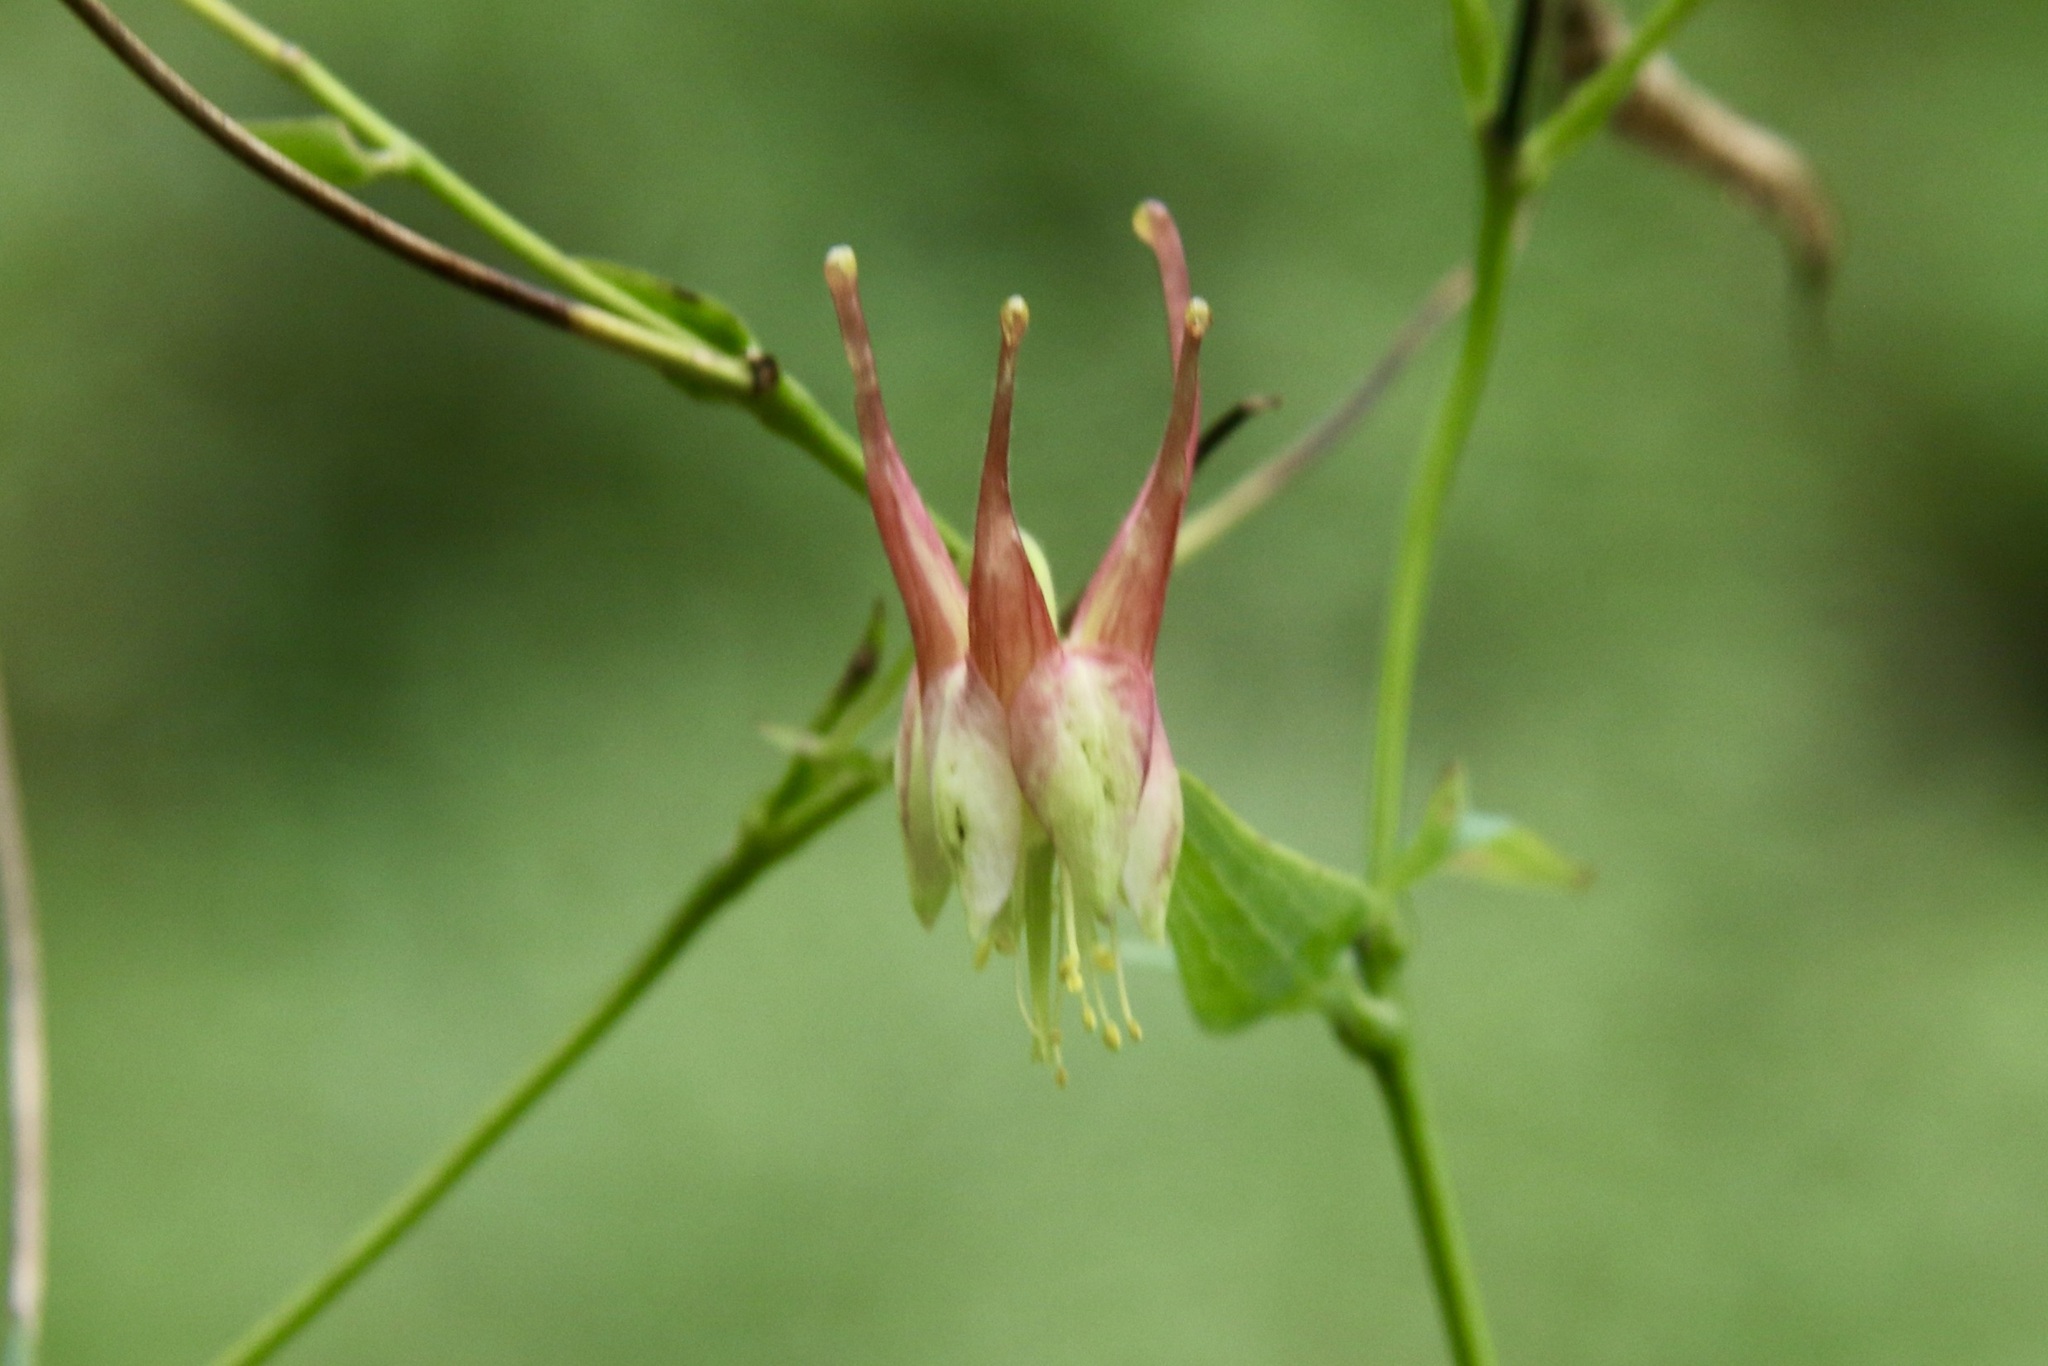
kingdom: Plantae
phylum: Tracheophyta
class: Magnoliopsida
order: Ranunculales
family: Ranunculaceae
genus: Aquilegia
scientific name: Aquilegia canadensis
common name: American columbine
